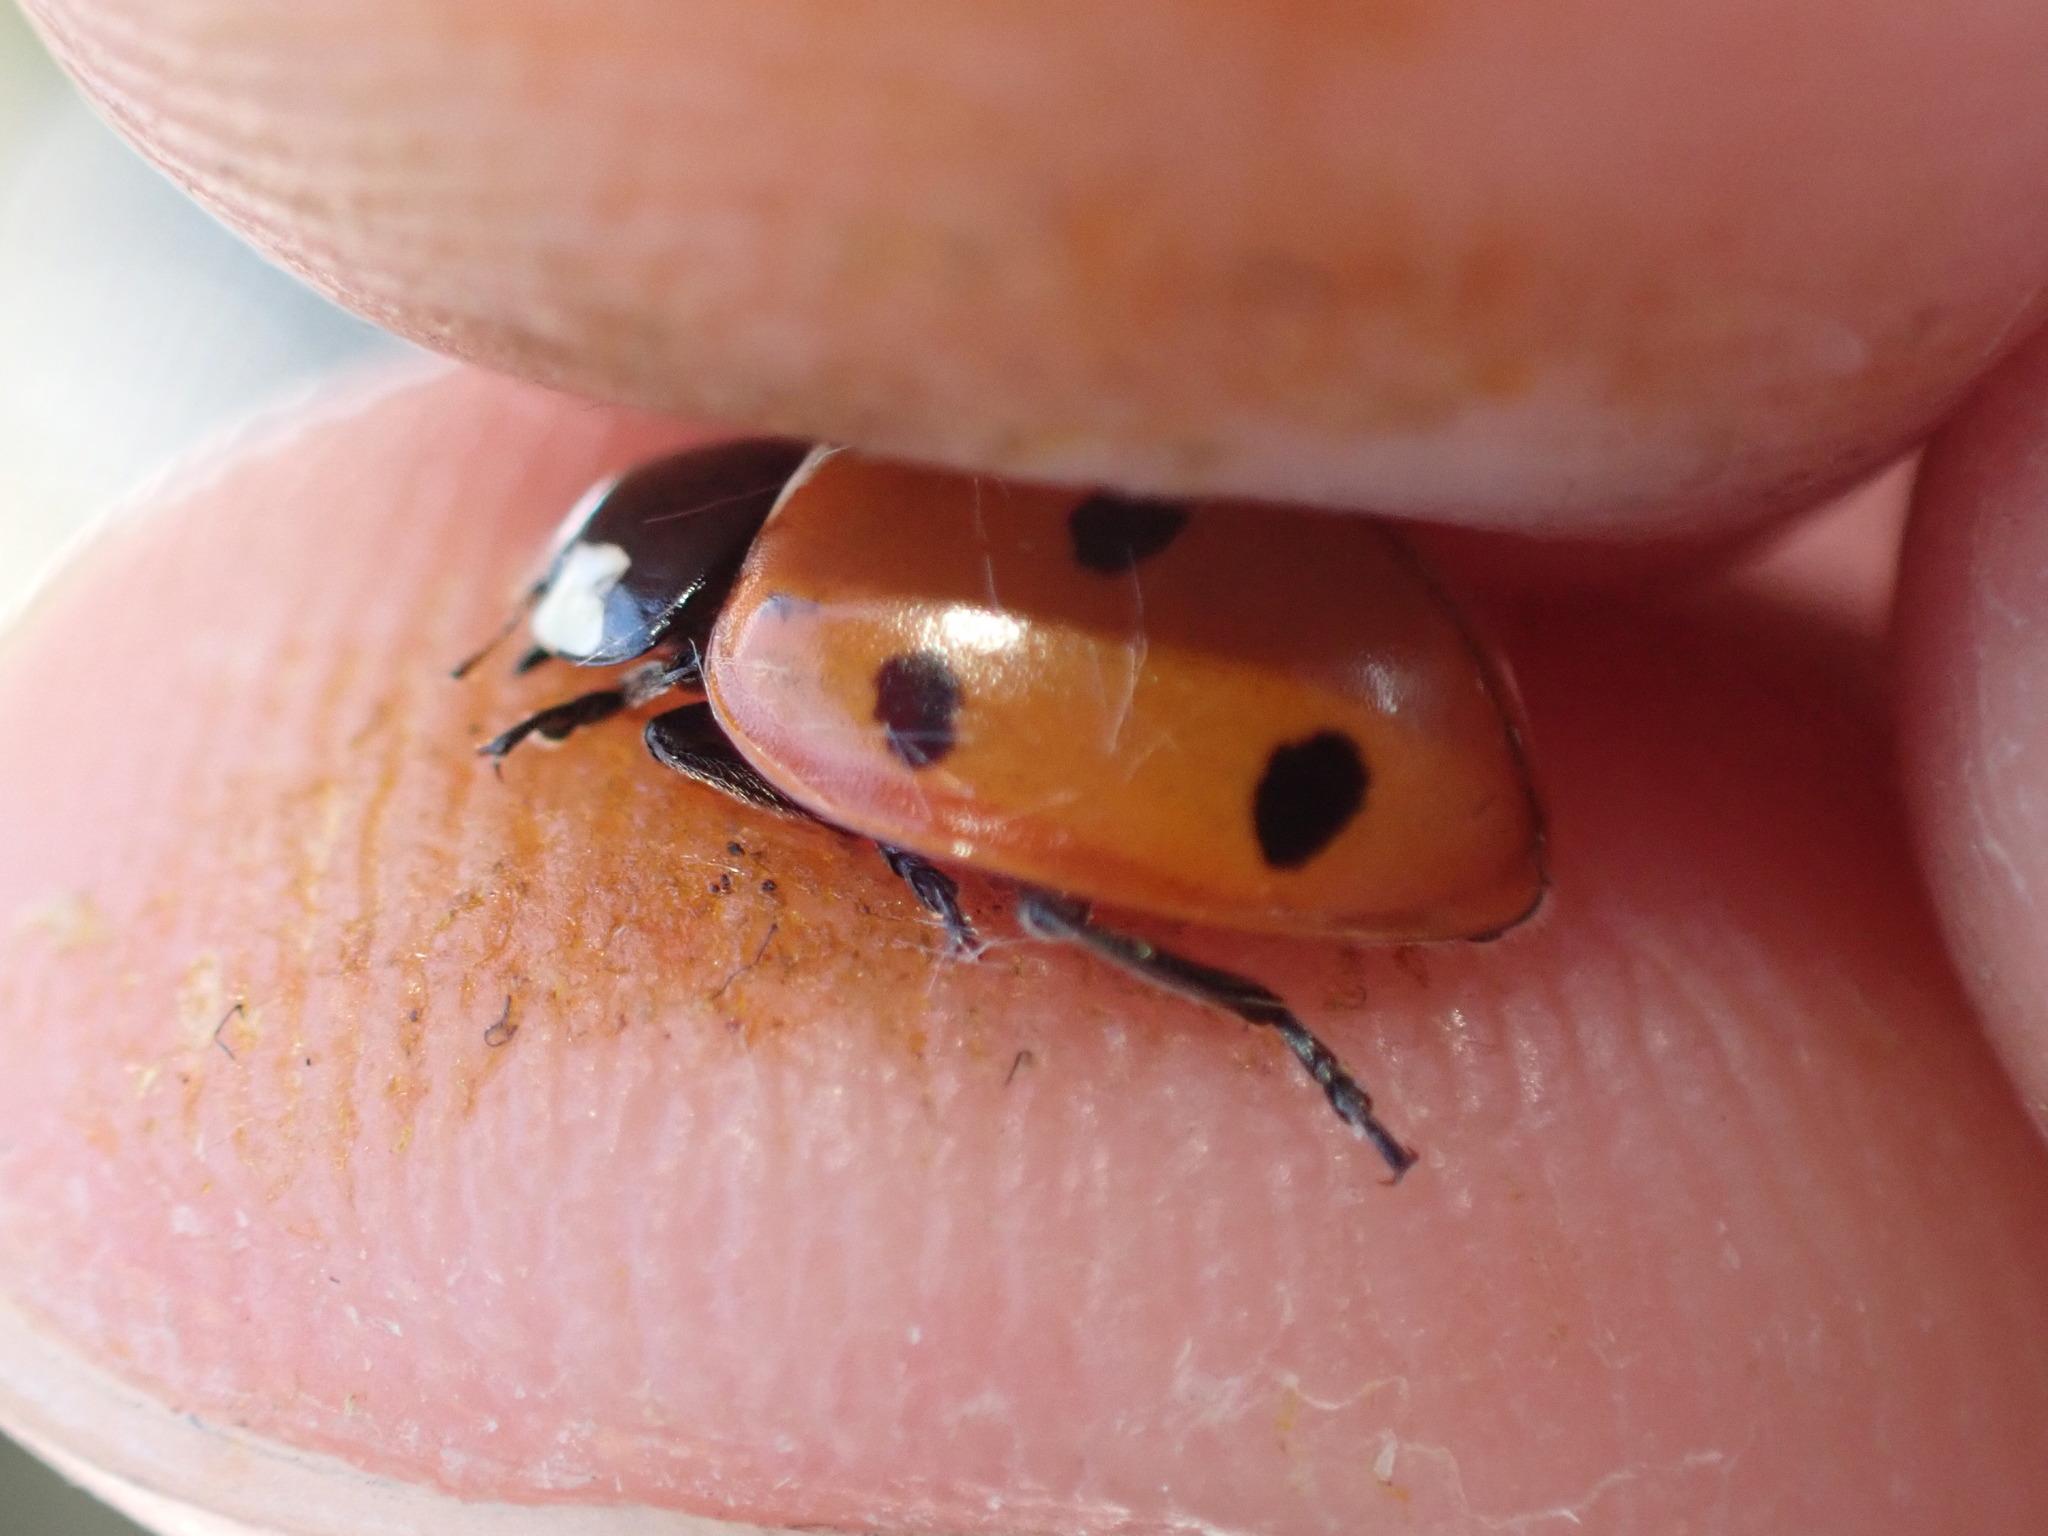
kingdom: Animalia
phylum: Arthropoda
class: Insecta
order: Coleoptera
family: Coccinellidae
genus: Coccinella
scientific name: Coccinella septempunctata
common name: Sevenspotted lady beetle
